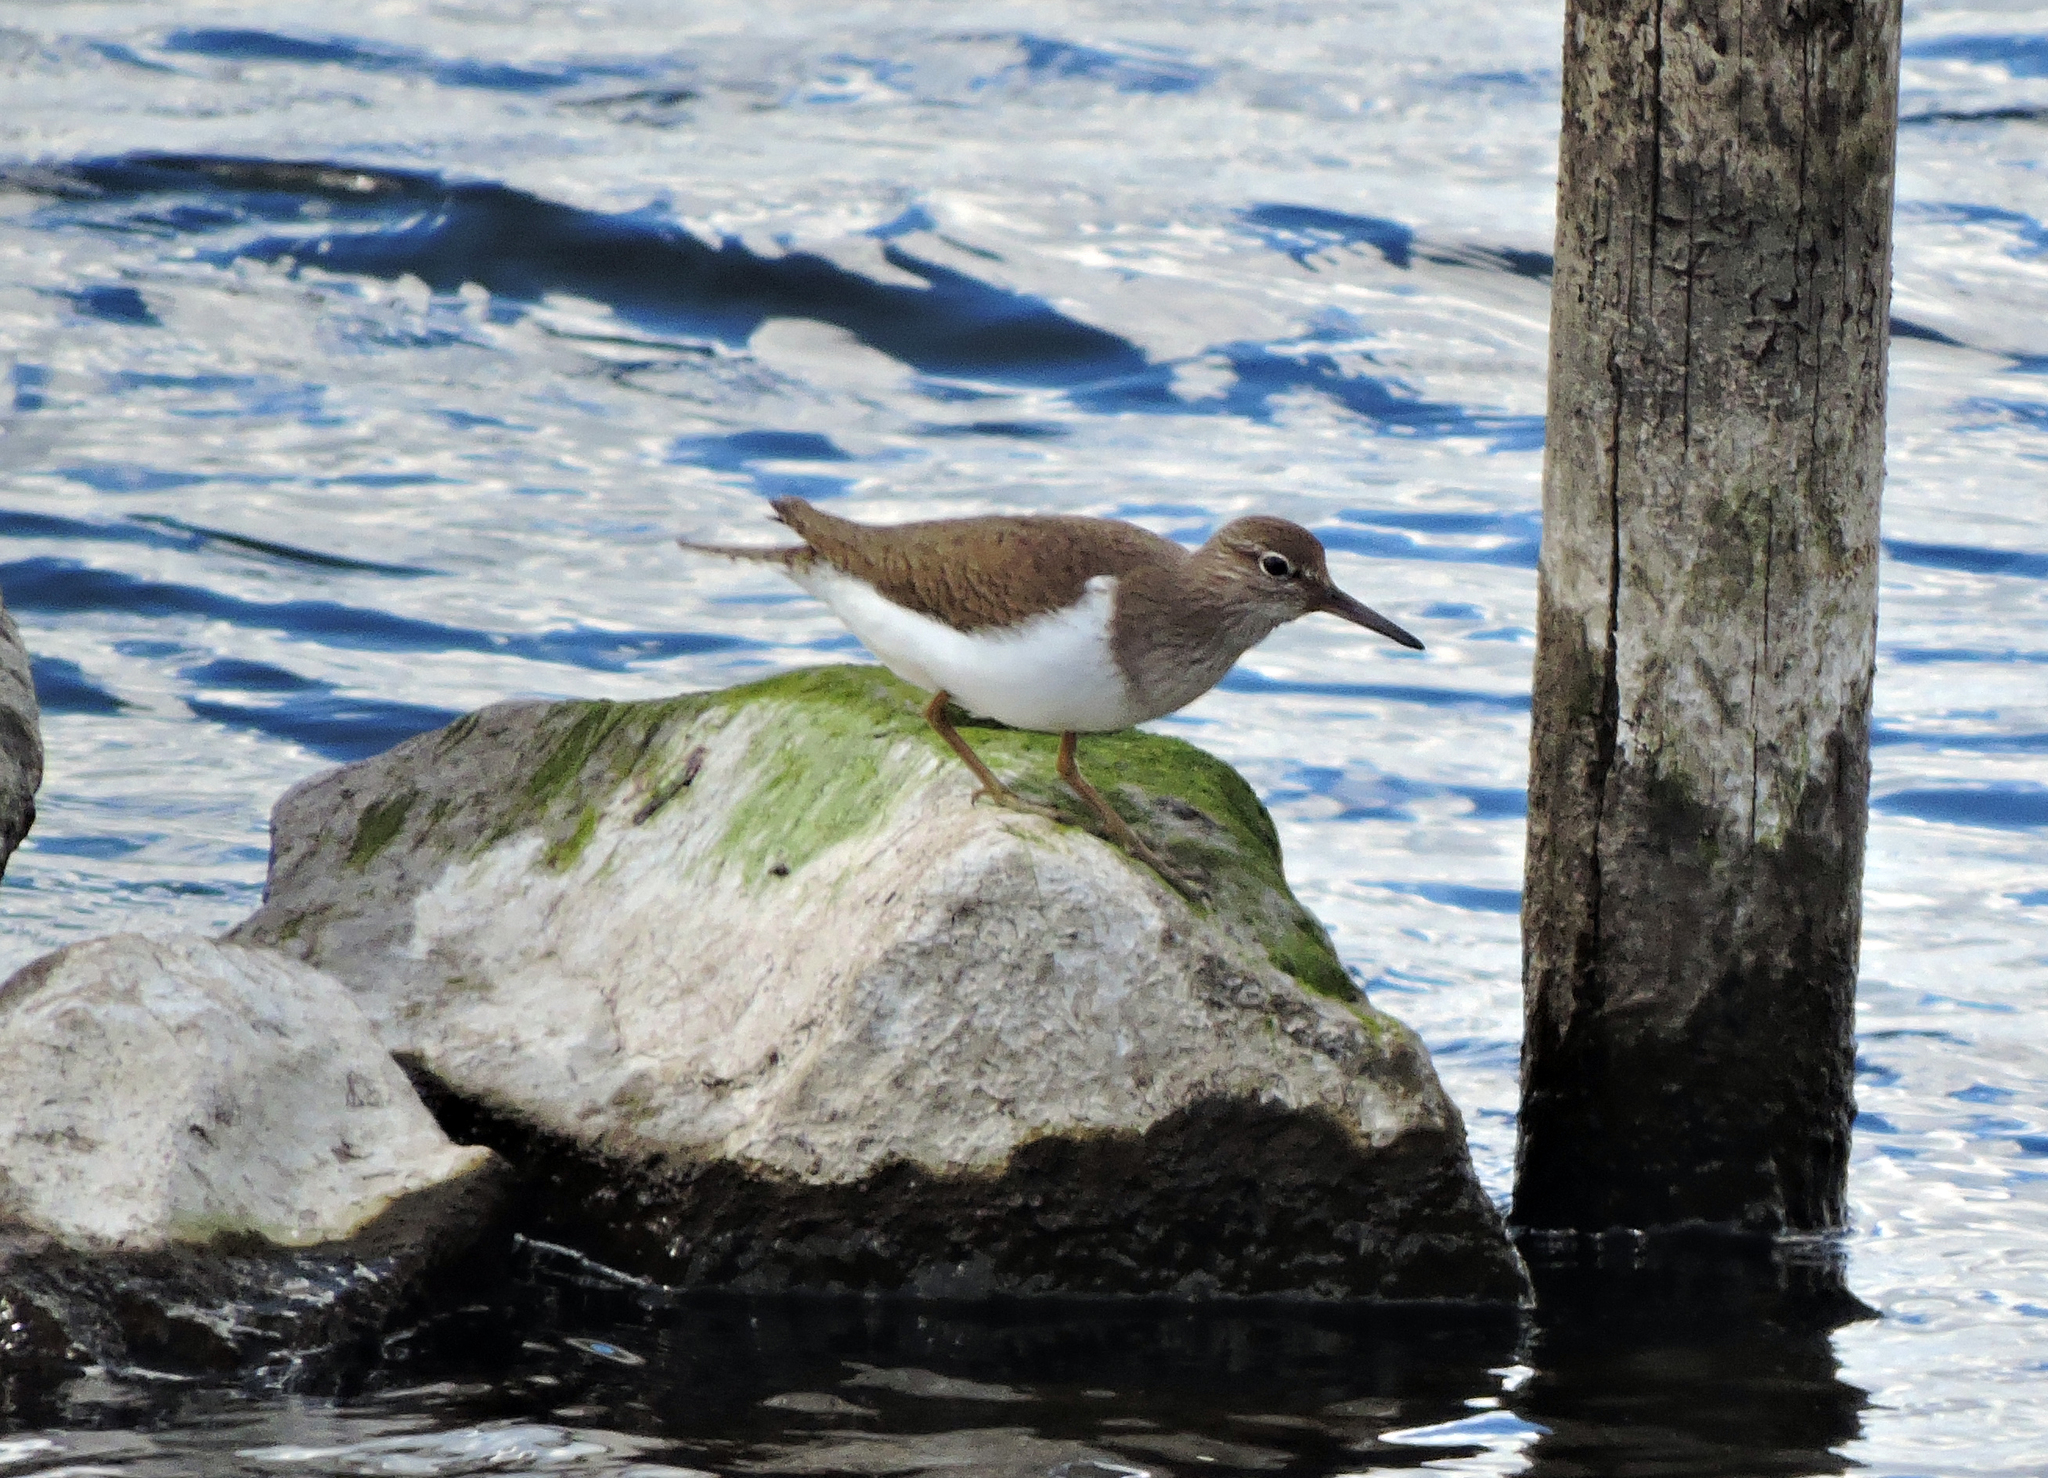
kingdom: Animalia
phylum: Chordata
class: Aves
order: Charadriiformes
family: Scolopacidae
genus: Actitis
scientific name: Actitis hypoleucos
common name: Common sandpiper
